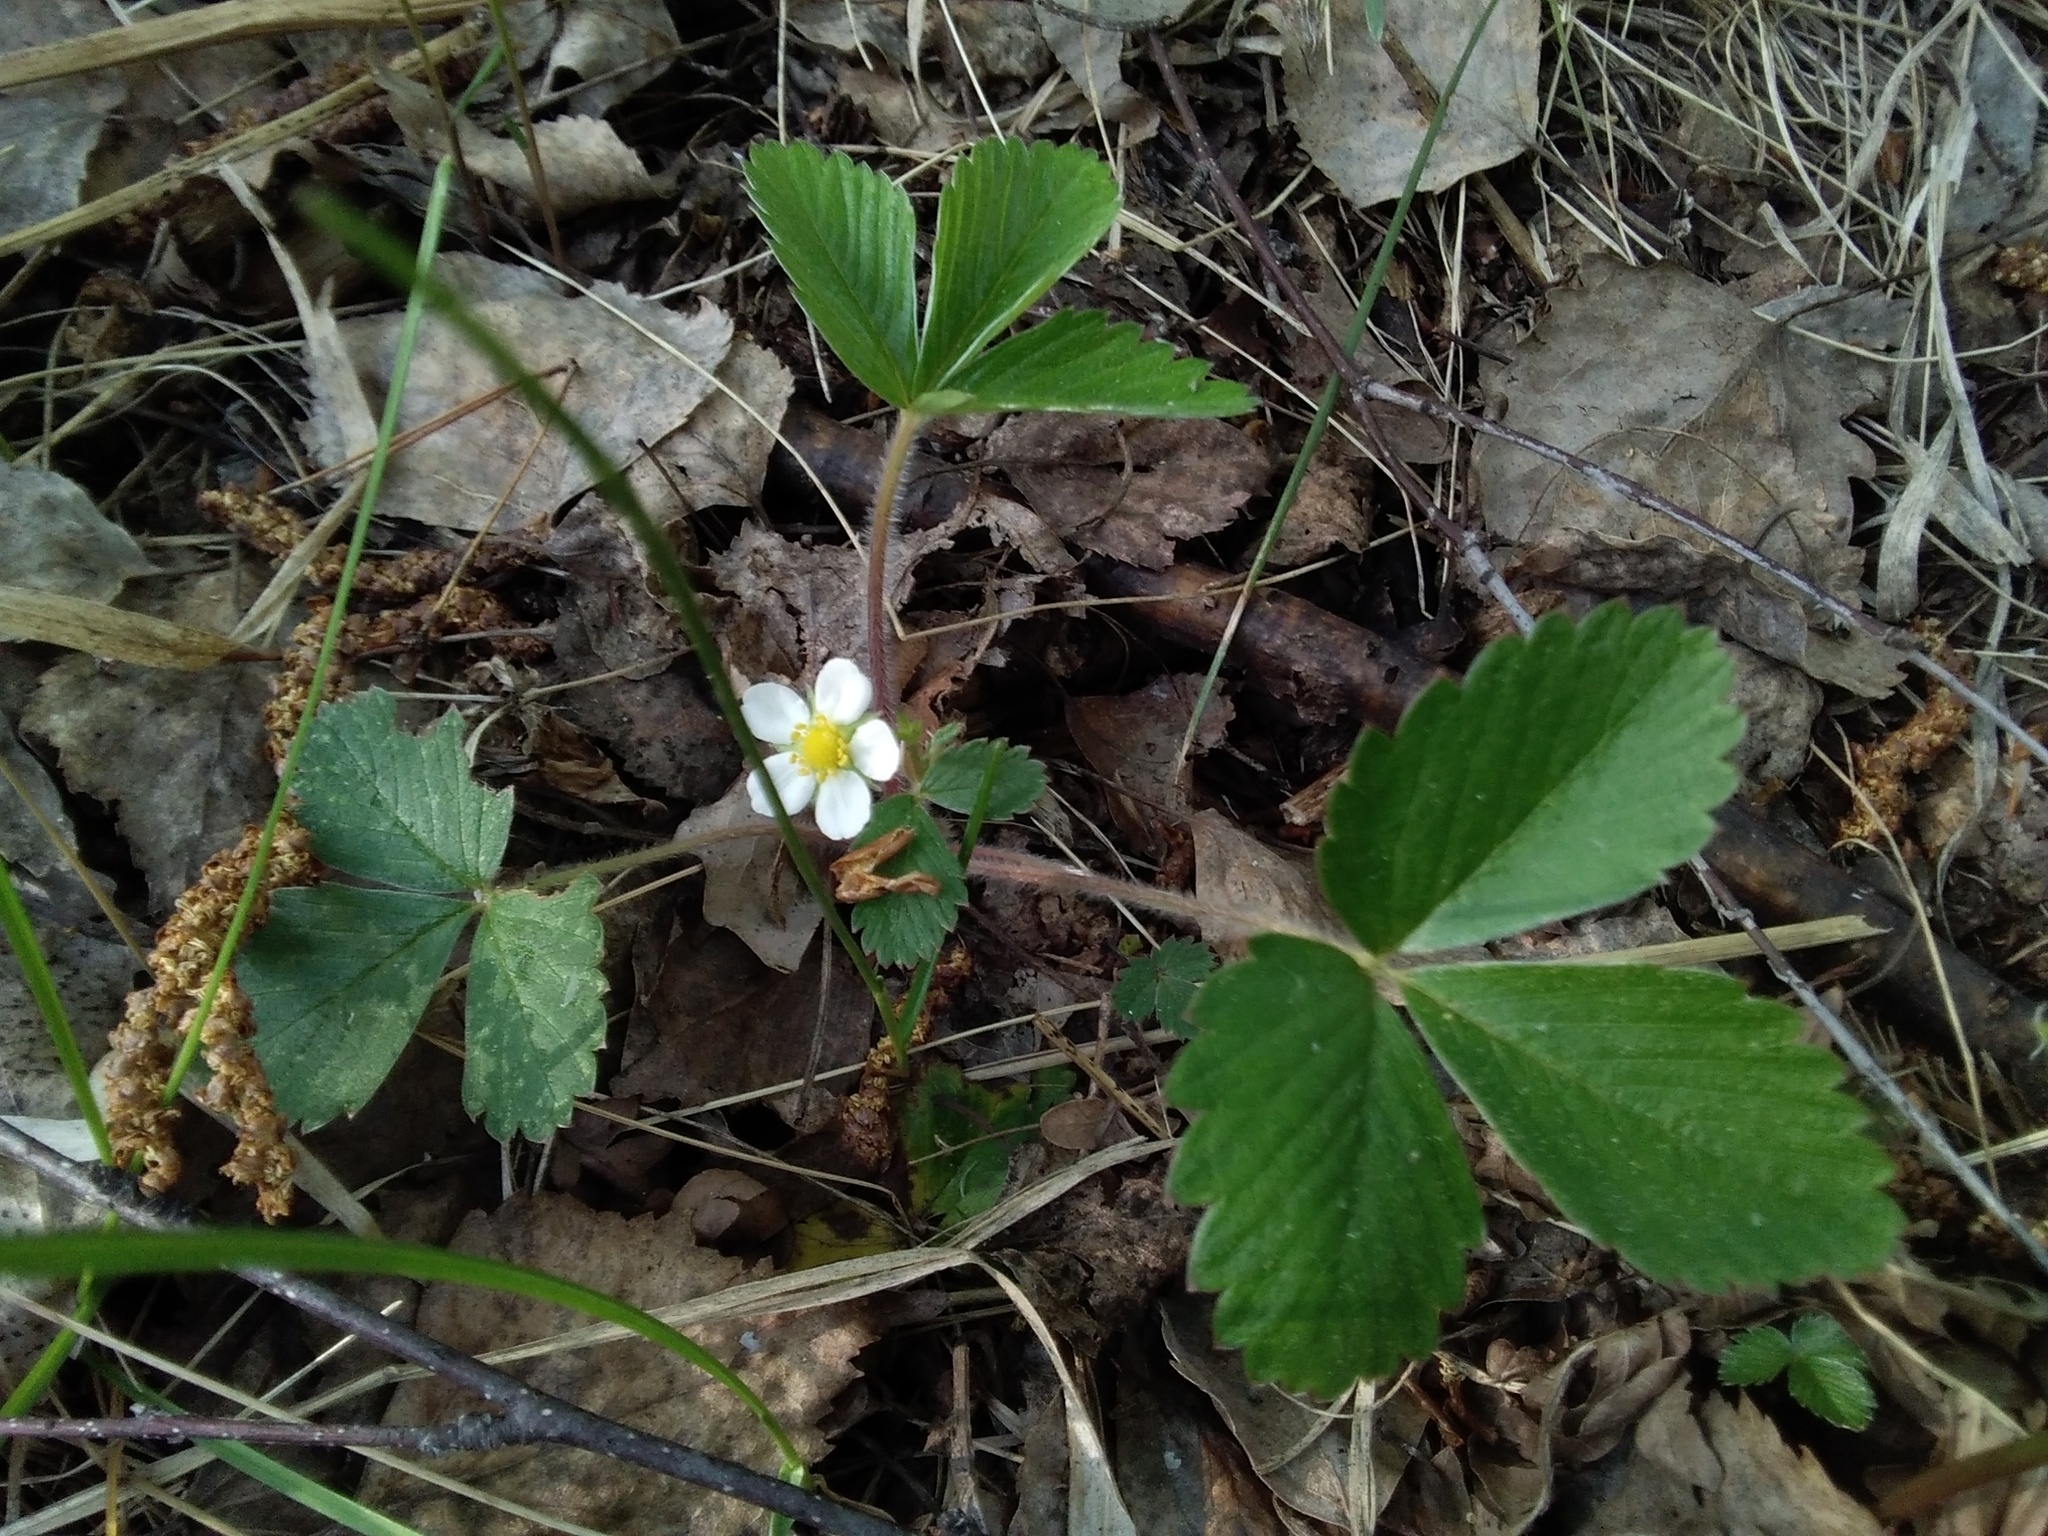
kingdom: Plantae
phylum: Tracheophyta
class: Magnoliopsida
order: Rosales
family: Rosaceae
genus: Fragaria
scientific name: Fragaria vesca
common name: Wild strawberry
